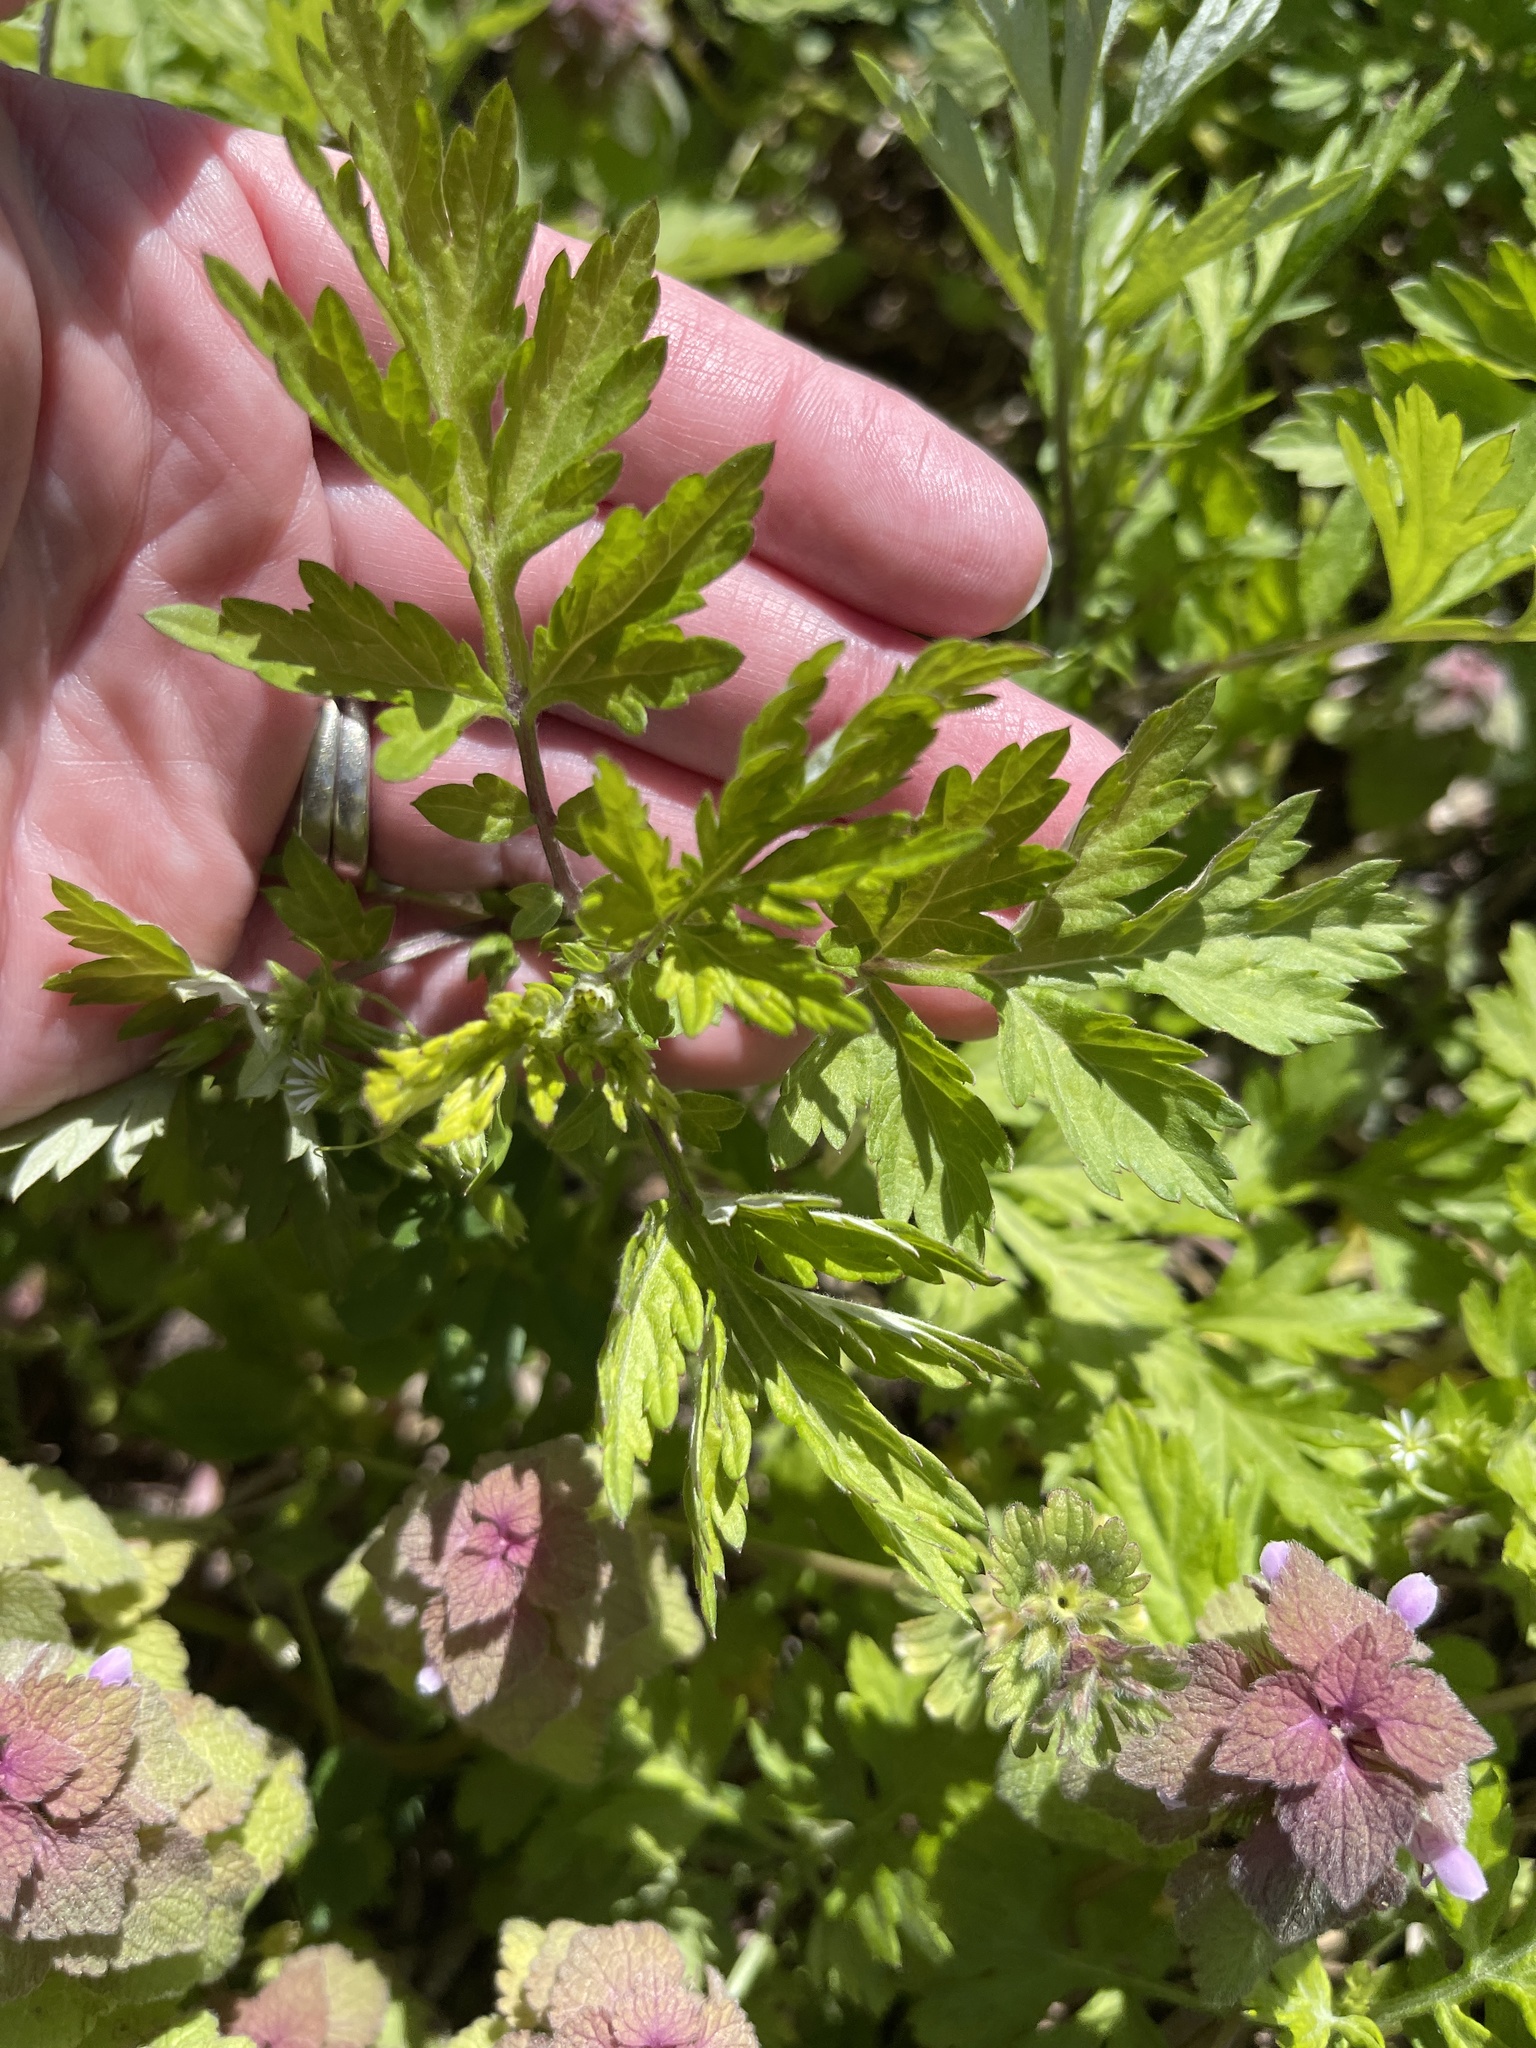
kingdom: Plantae
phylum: Tracheophyta
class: Magnoliopsida
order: Asterales
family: Asteraceae
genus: Artemisia
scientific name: Artemisia vulgaris
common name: Mugwort
